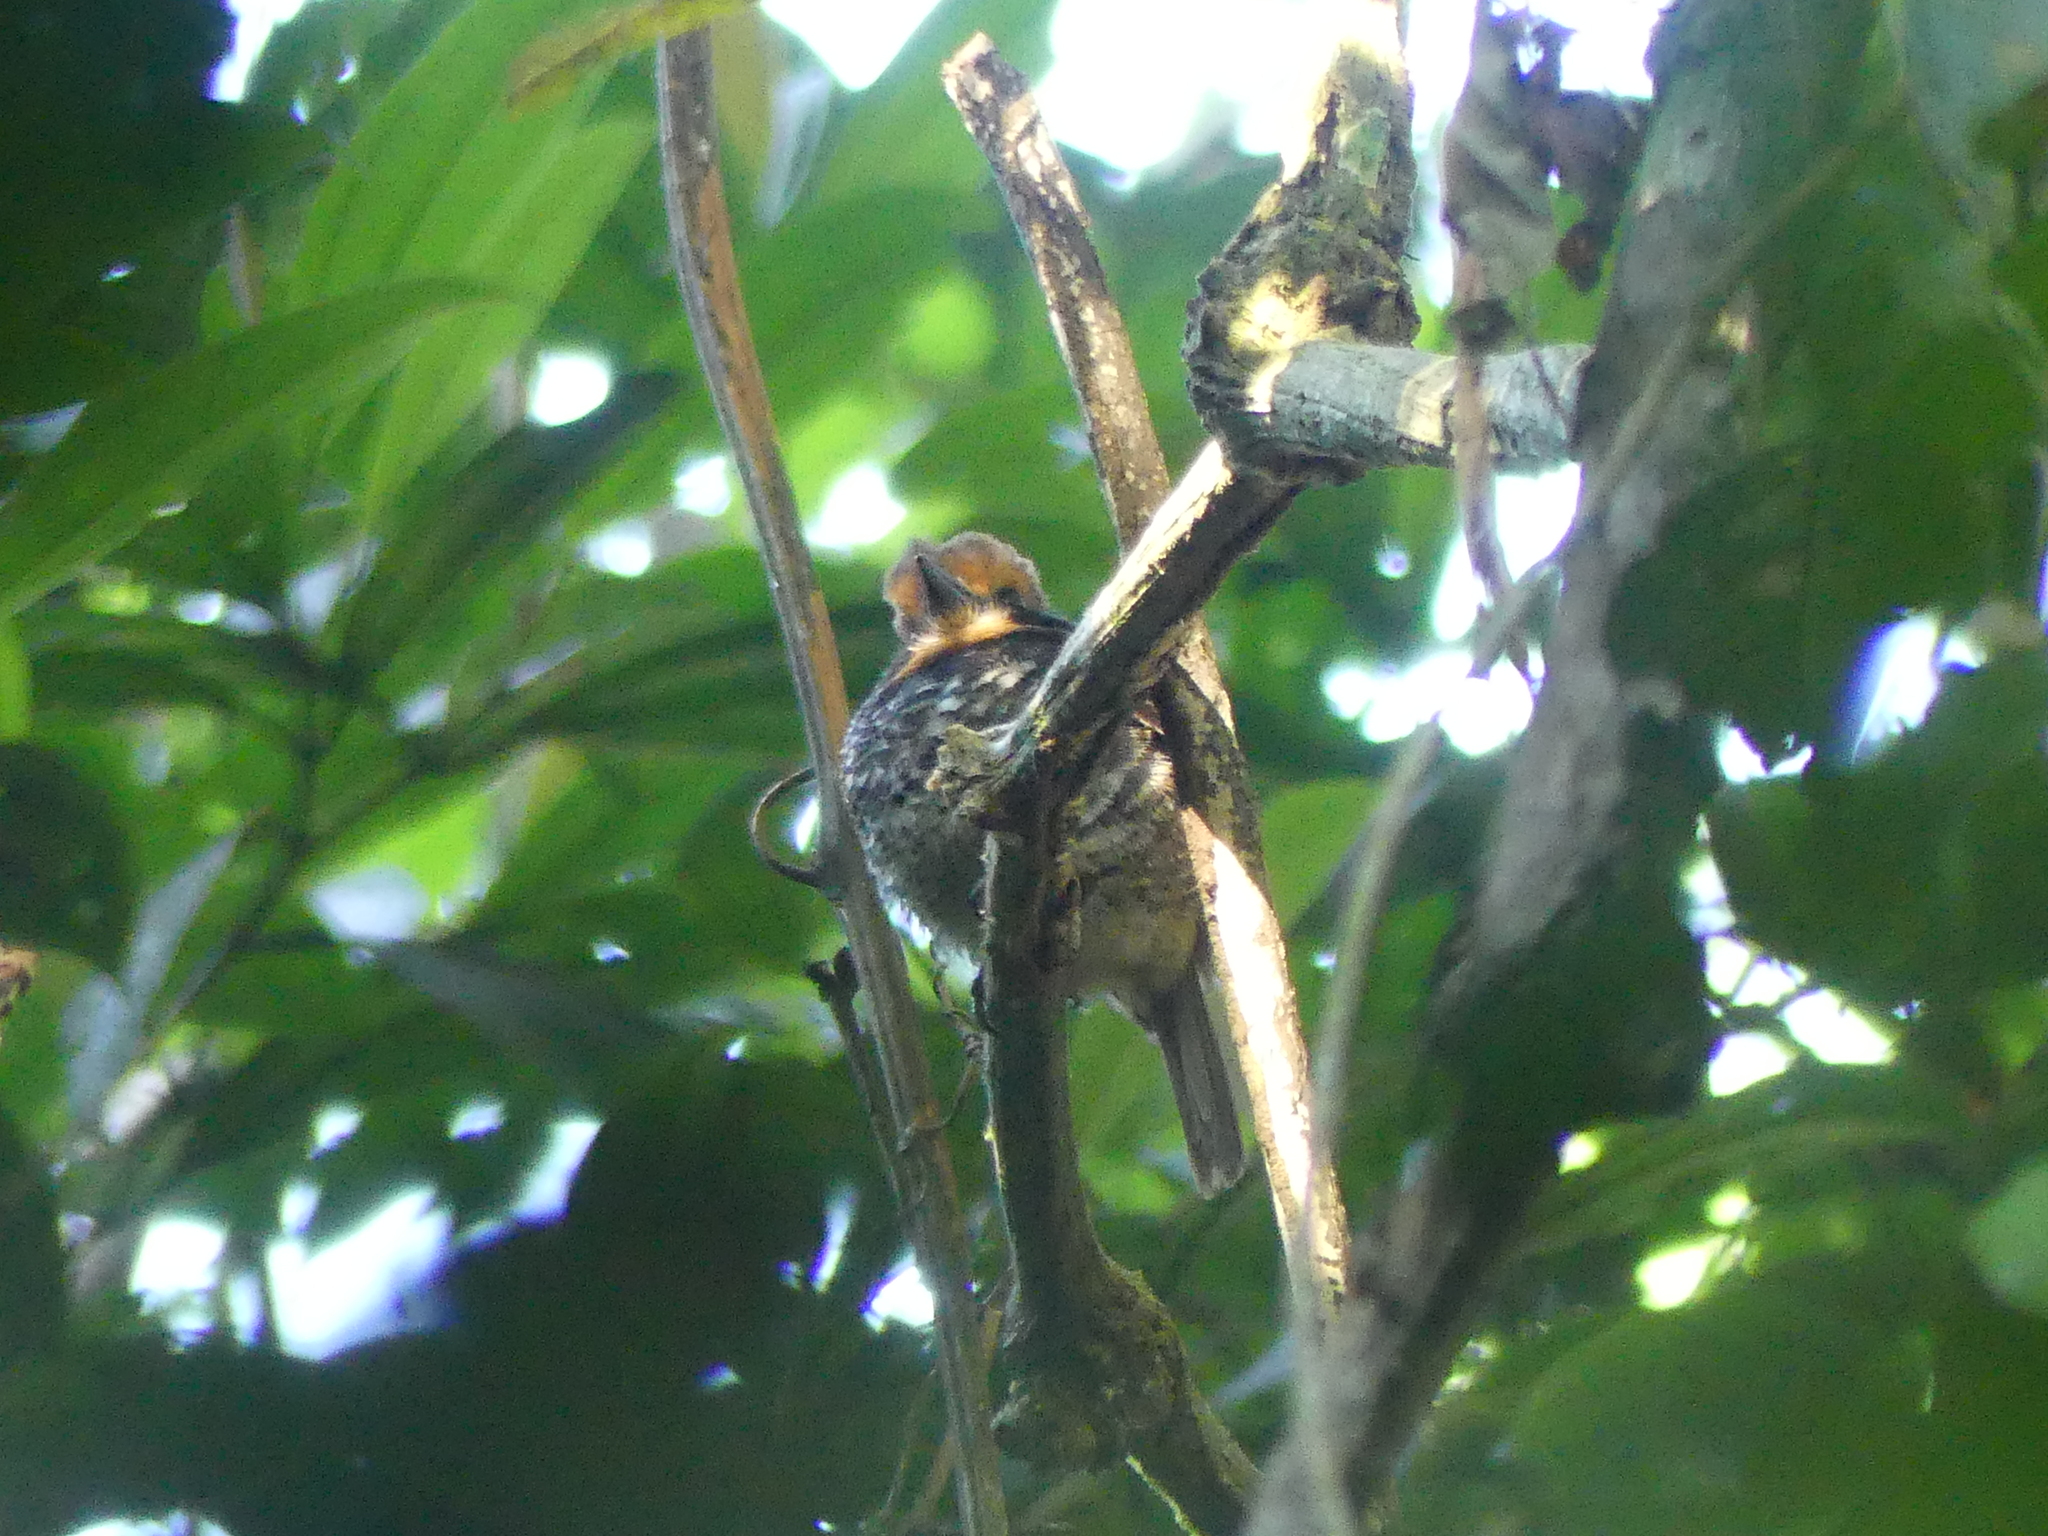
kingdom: Animalia
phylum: Chordata
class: Aves
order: Piciformes
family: Bucconidae
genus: Bucco
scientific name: Bucco tamatia
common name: Spotted puffbird
